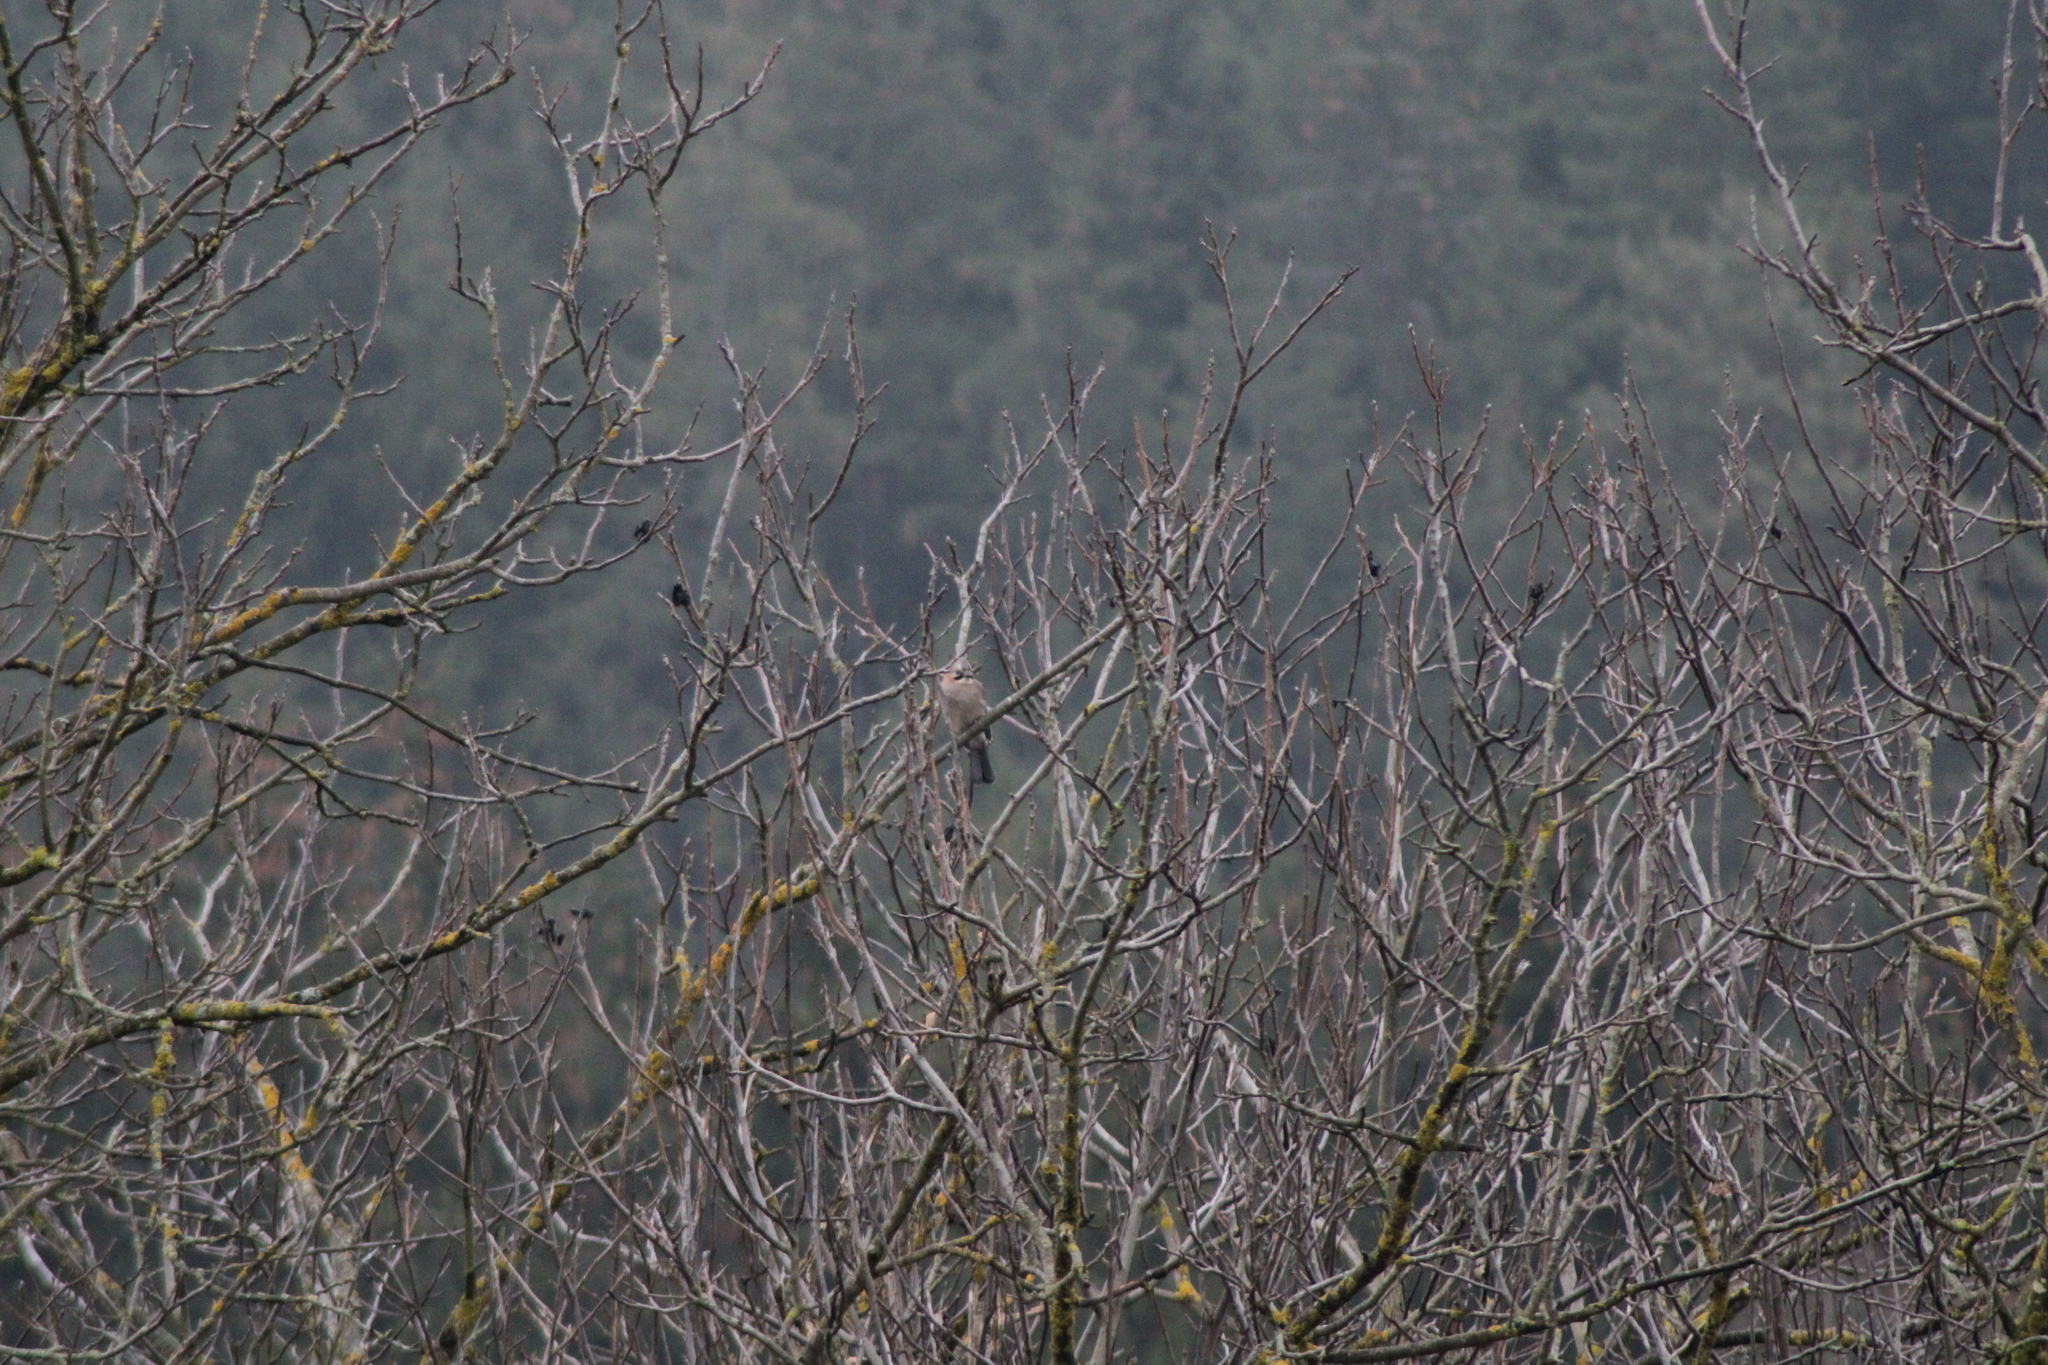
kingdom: Animalia
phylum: Chordata
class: Aves
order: Passeriformes
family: Corvidae
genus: Garrulus
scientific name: Garrulus glandarius
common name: Eurasian jay
